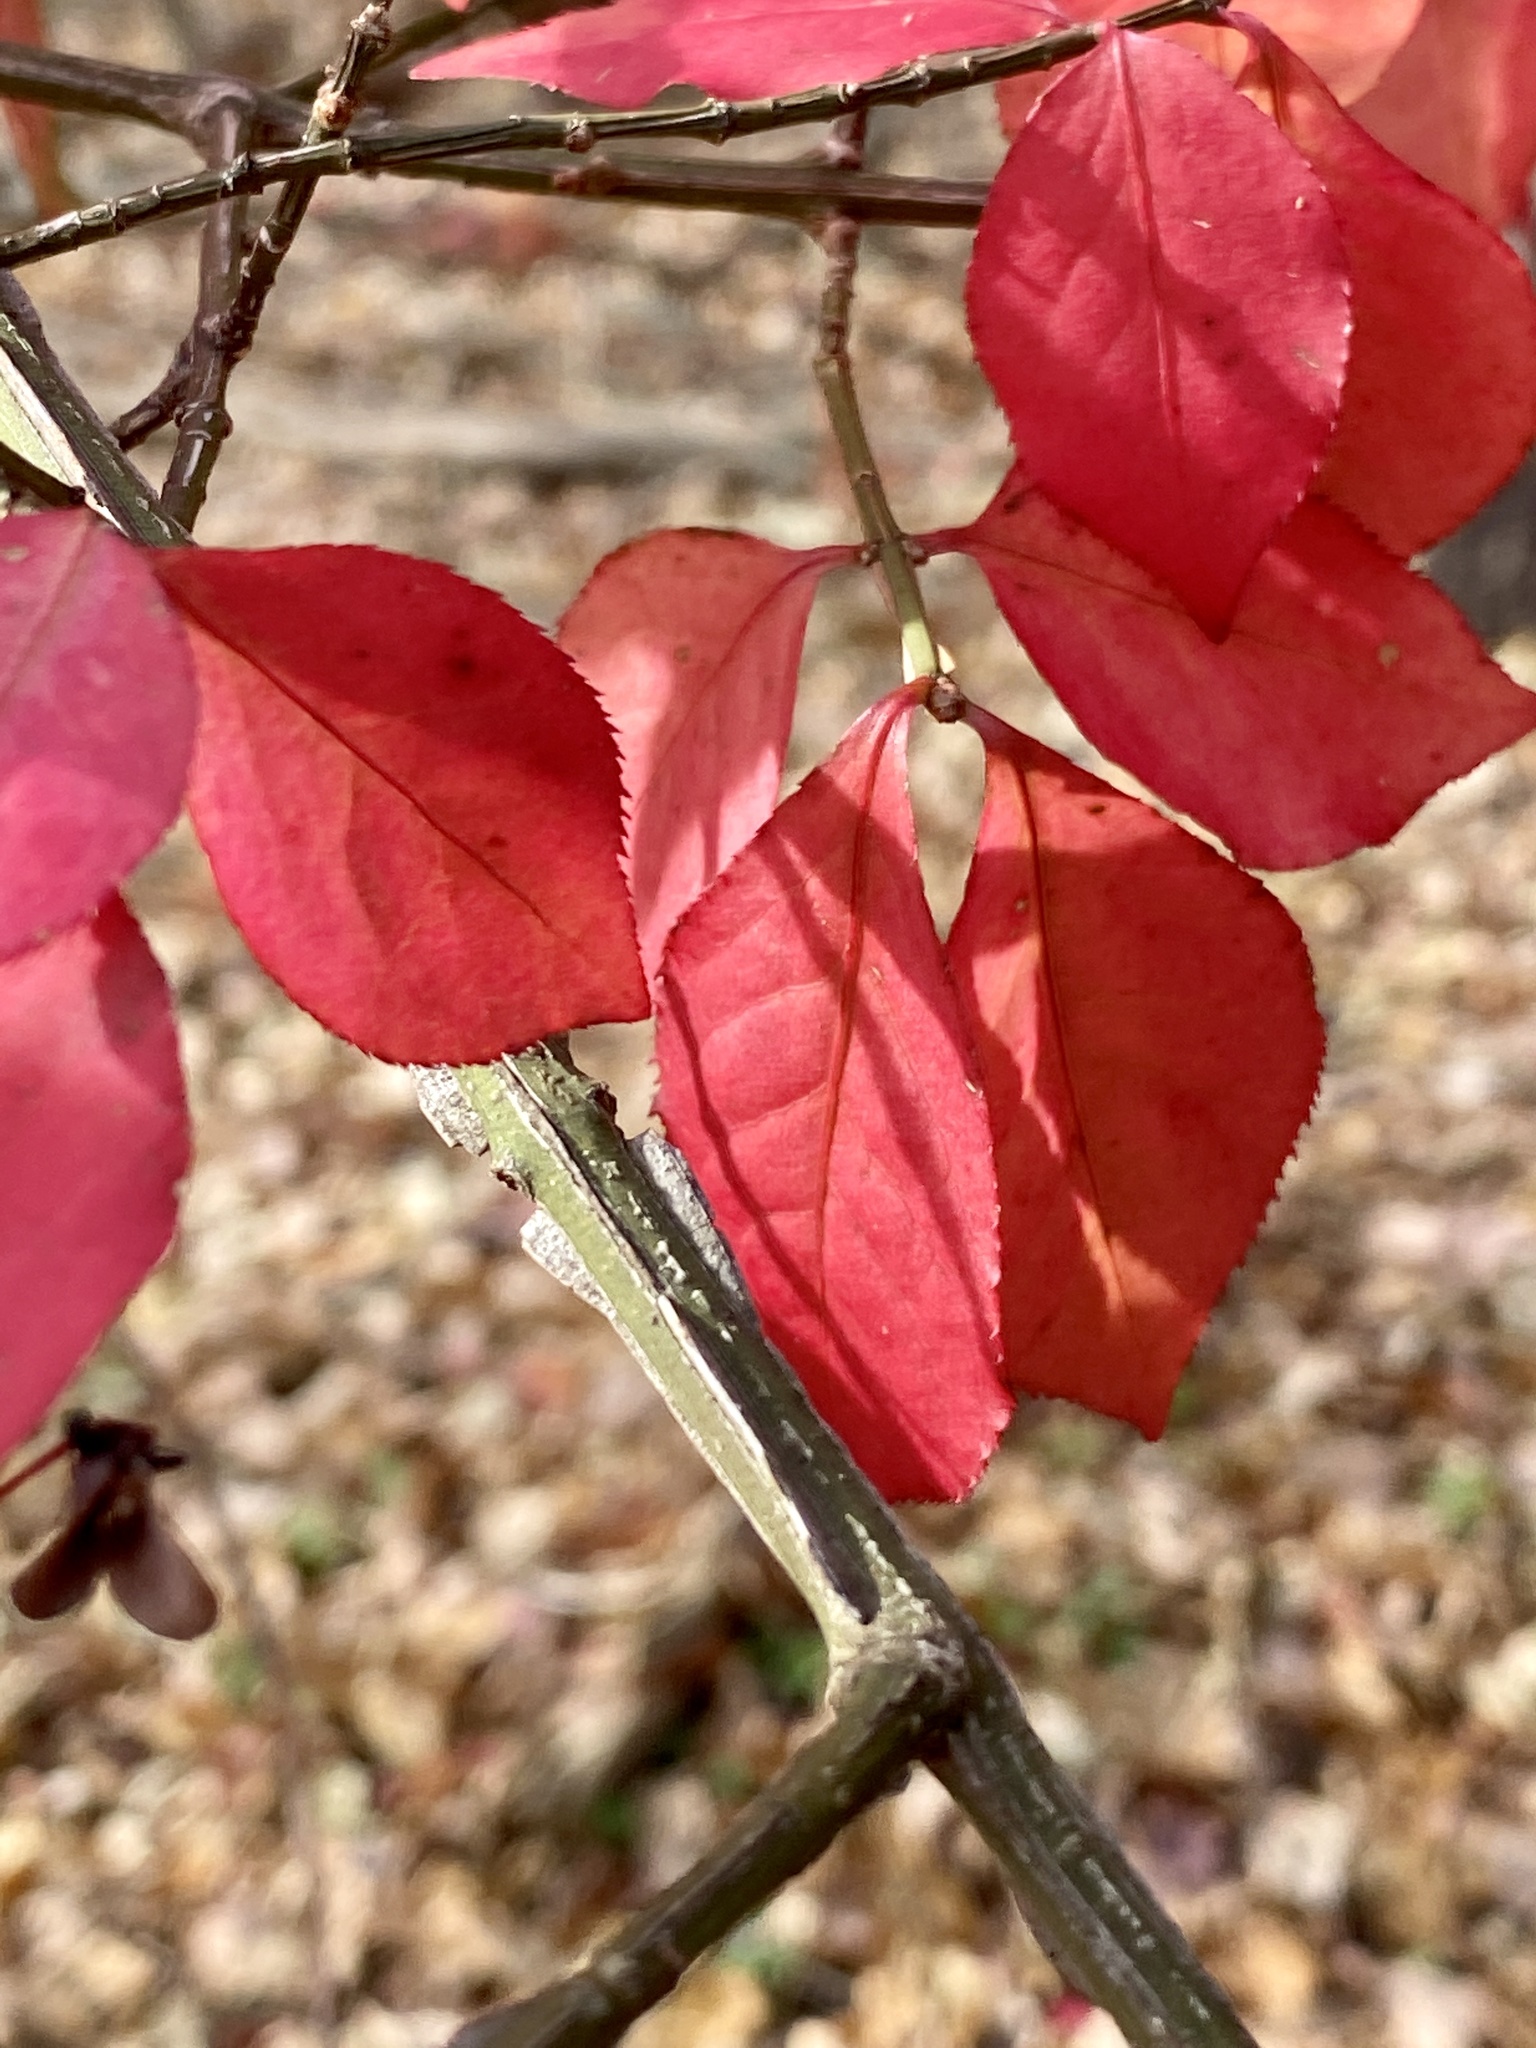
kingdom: Plantae
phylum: Tracheophyta
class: Magnoliopsida
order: Celastrales
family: Celastraceae
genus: Euonymus
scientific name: Euonymus alatus
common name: Winged euonymus
